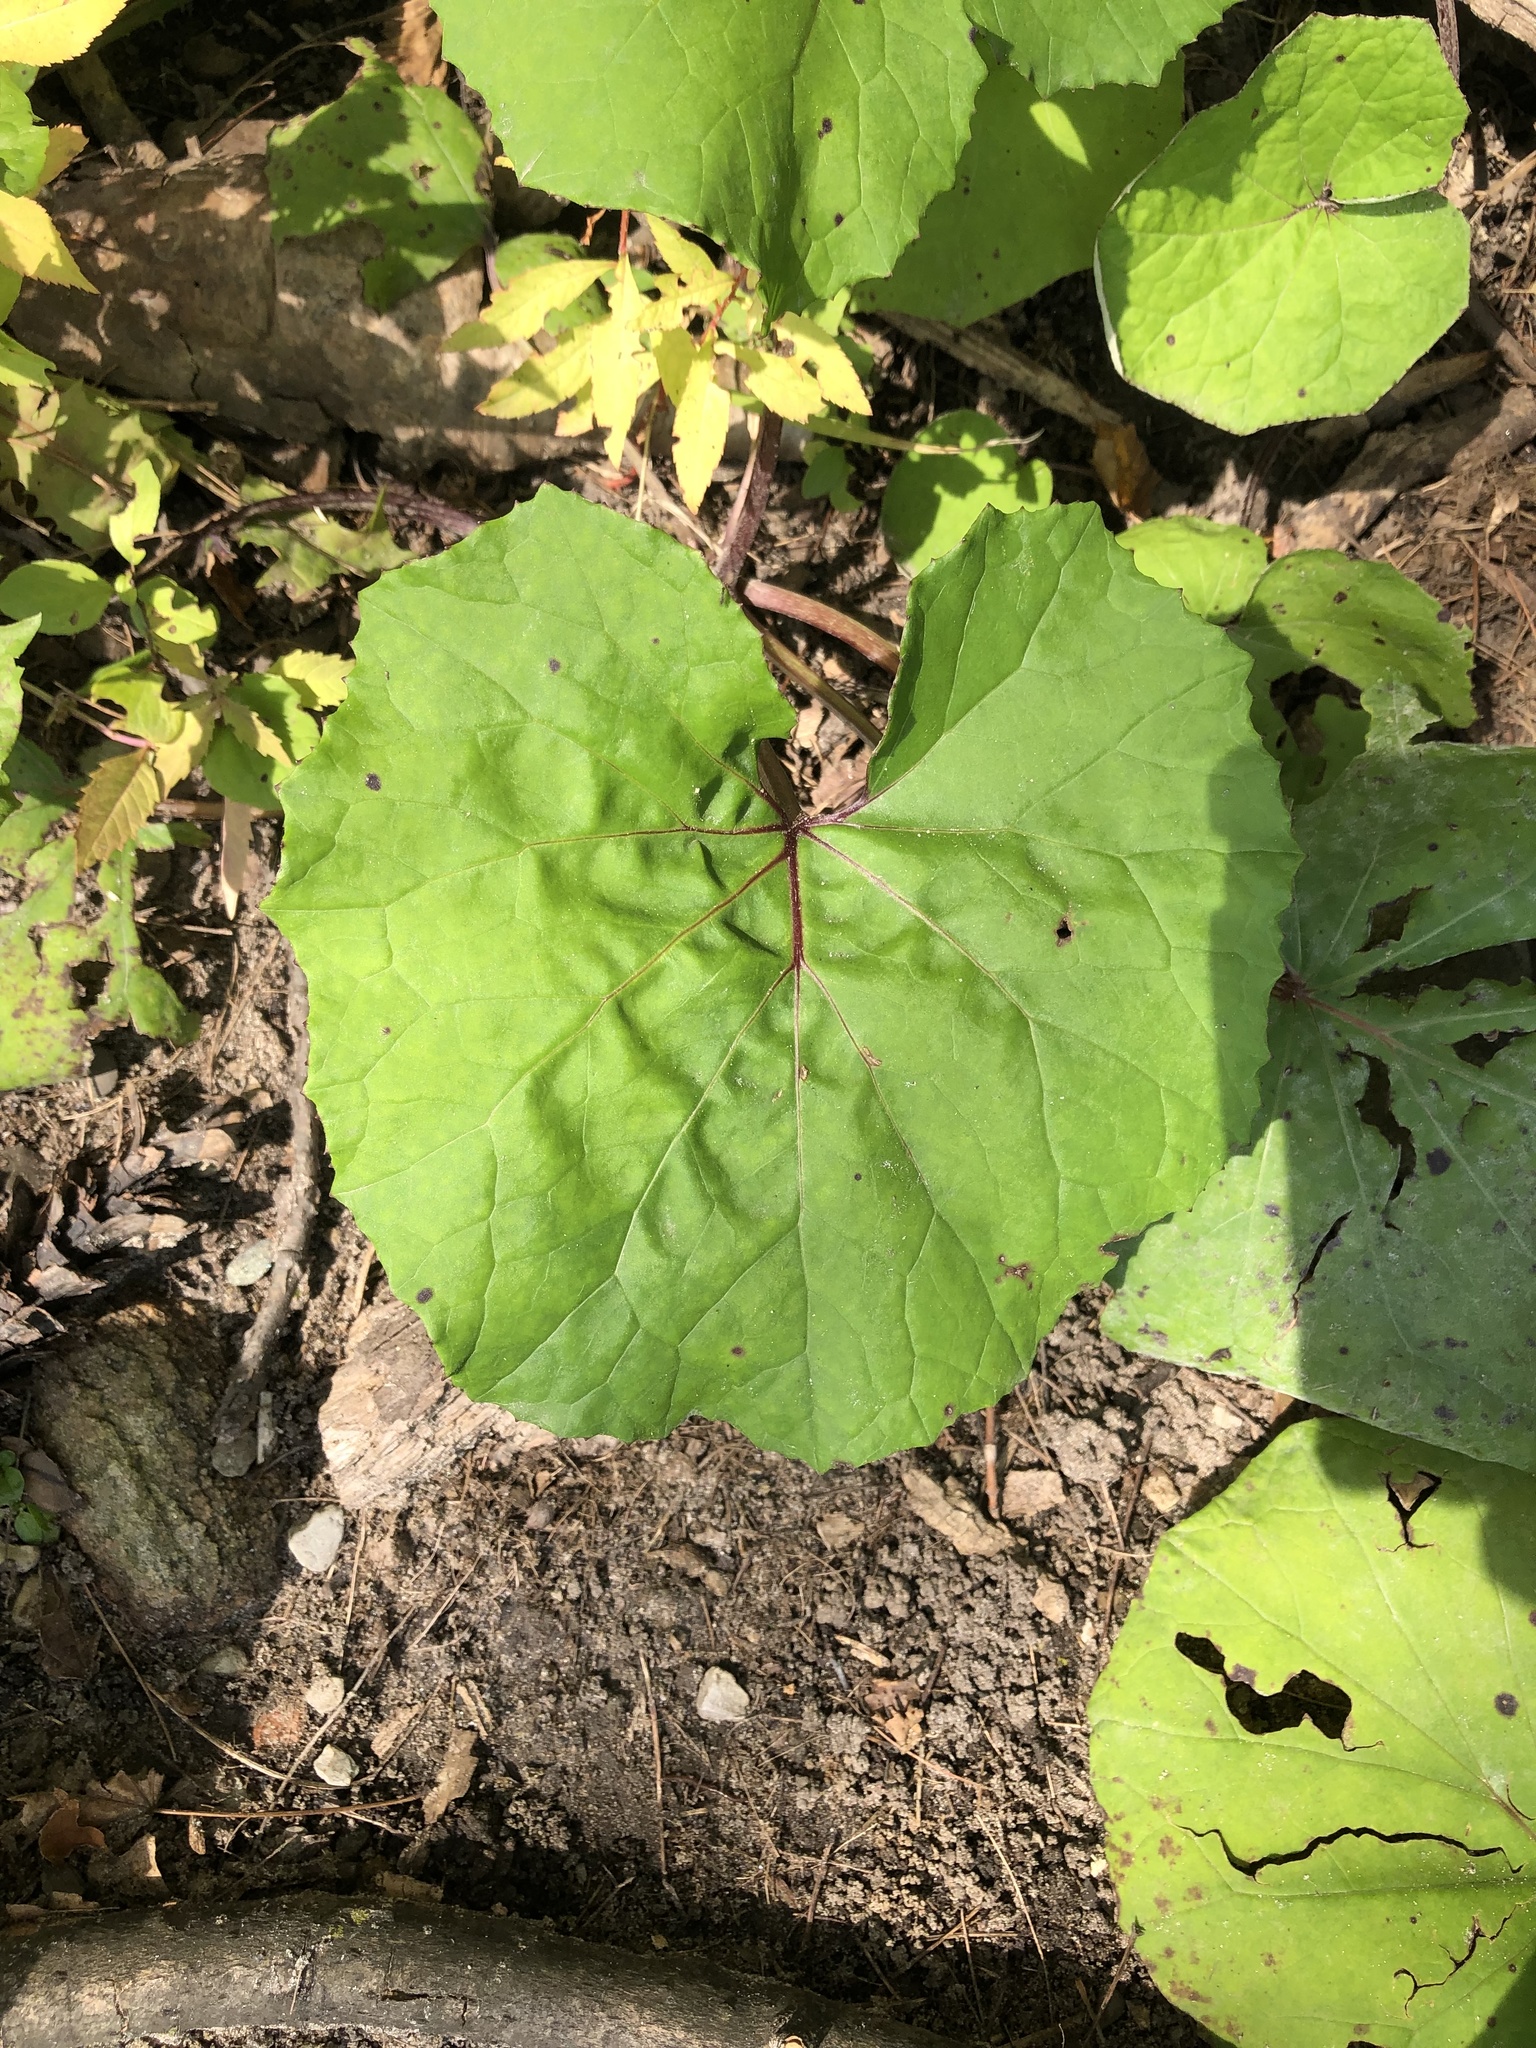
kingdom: Plantae
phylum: Tracheophyta
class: Magnoliopsida
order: Asterales
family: Asteraceae
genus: Tussilago
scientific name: Tussilago farfara
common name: Coltsfoot
